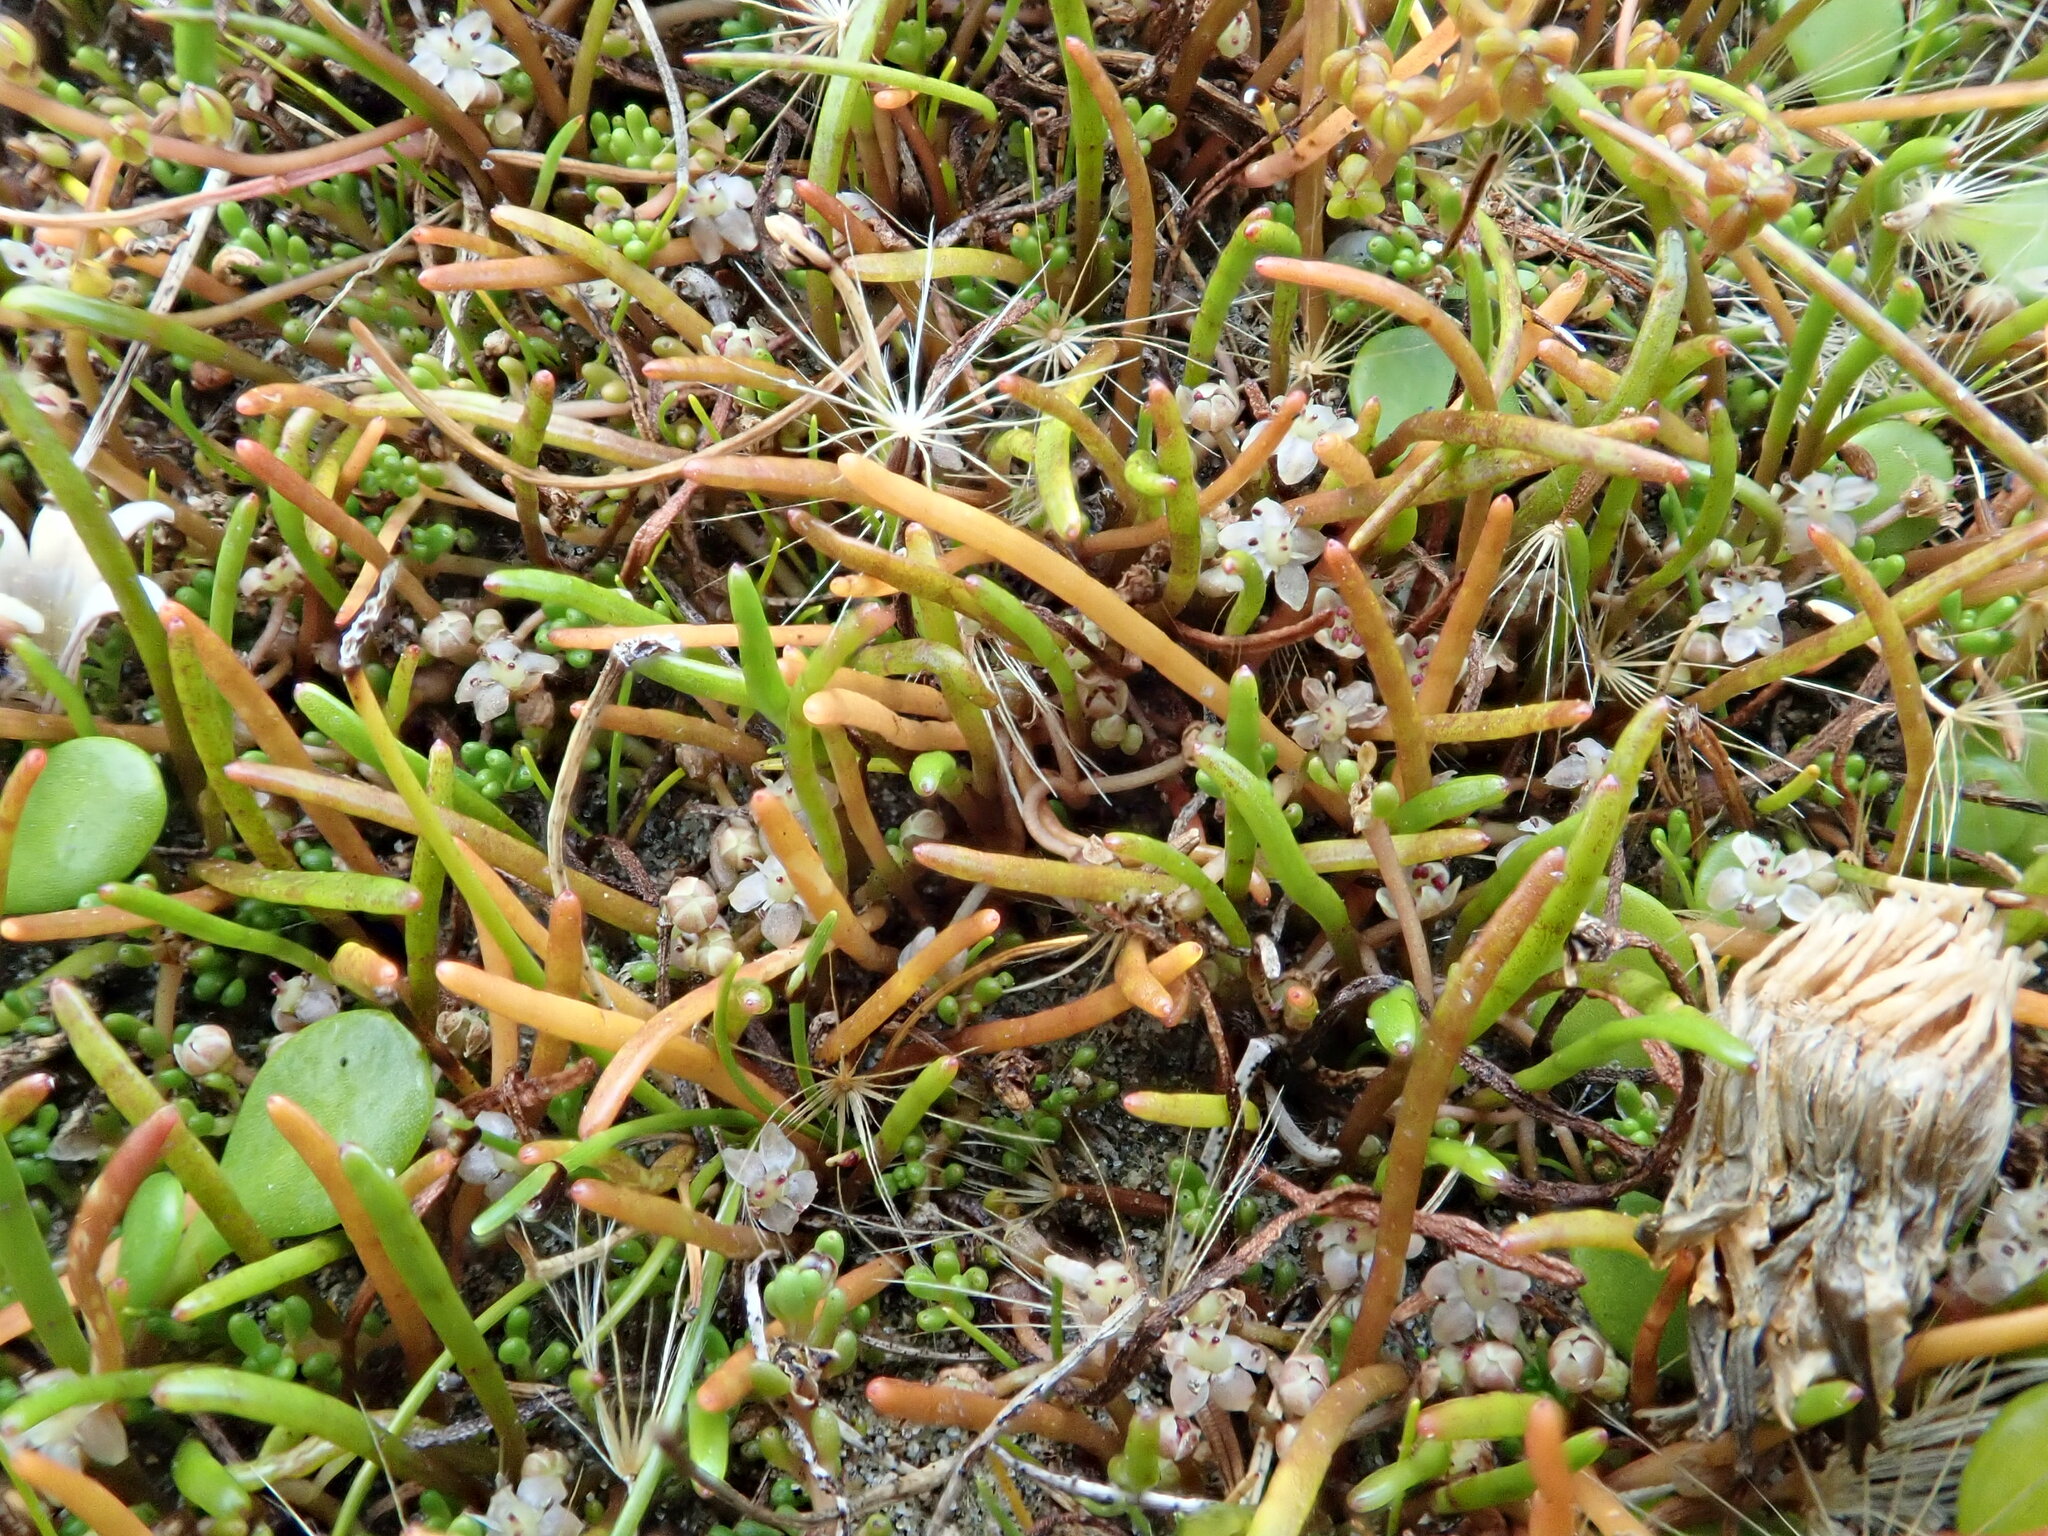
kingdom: Plantae
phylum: Tracheophyta
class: Magnoliopsida
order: Apiales
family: Apiaceae
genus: Lilaeopsis
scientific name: Lilaeopsis novae-zelandiae
